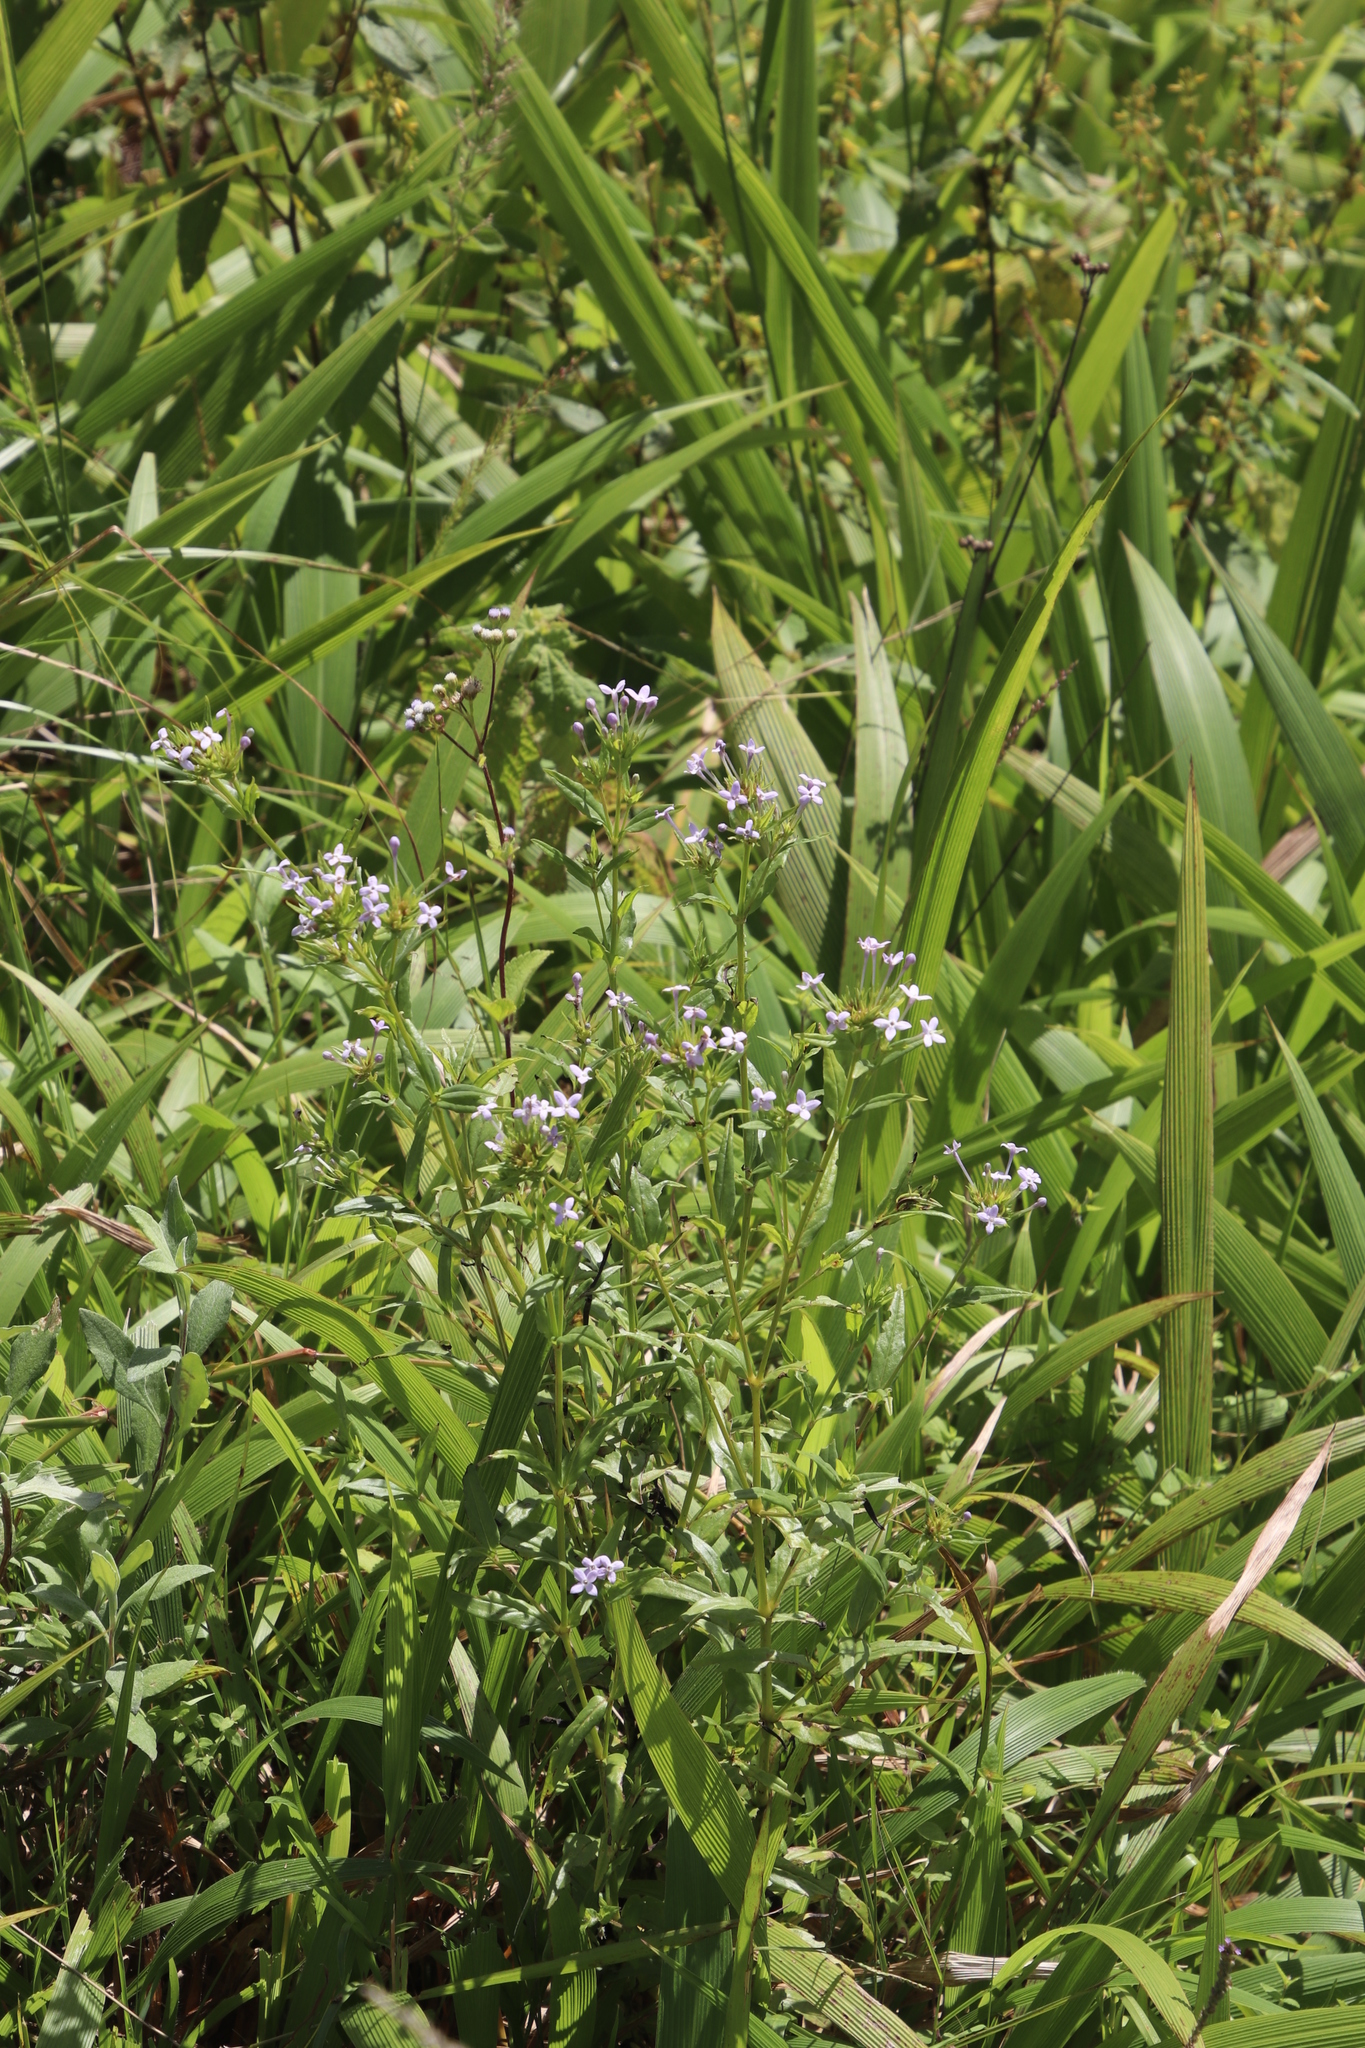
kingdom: Plantae
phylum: Tracheophyta
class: Magnoliopsida
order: Gentianales
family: Rubiaceae
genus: Conostomium
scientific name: Conostomium natalense
